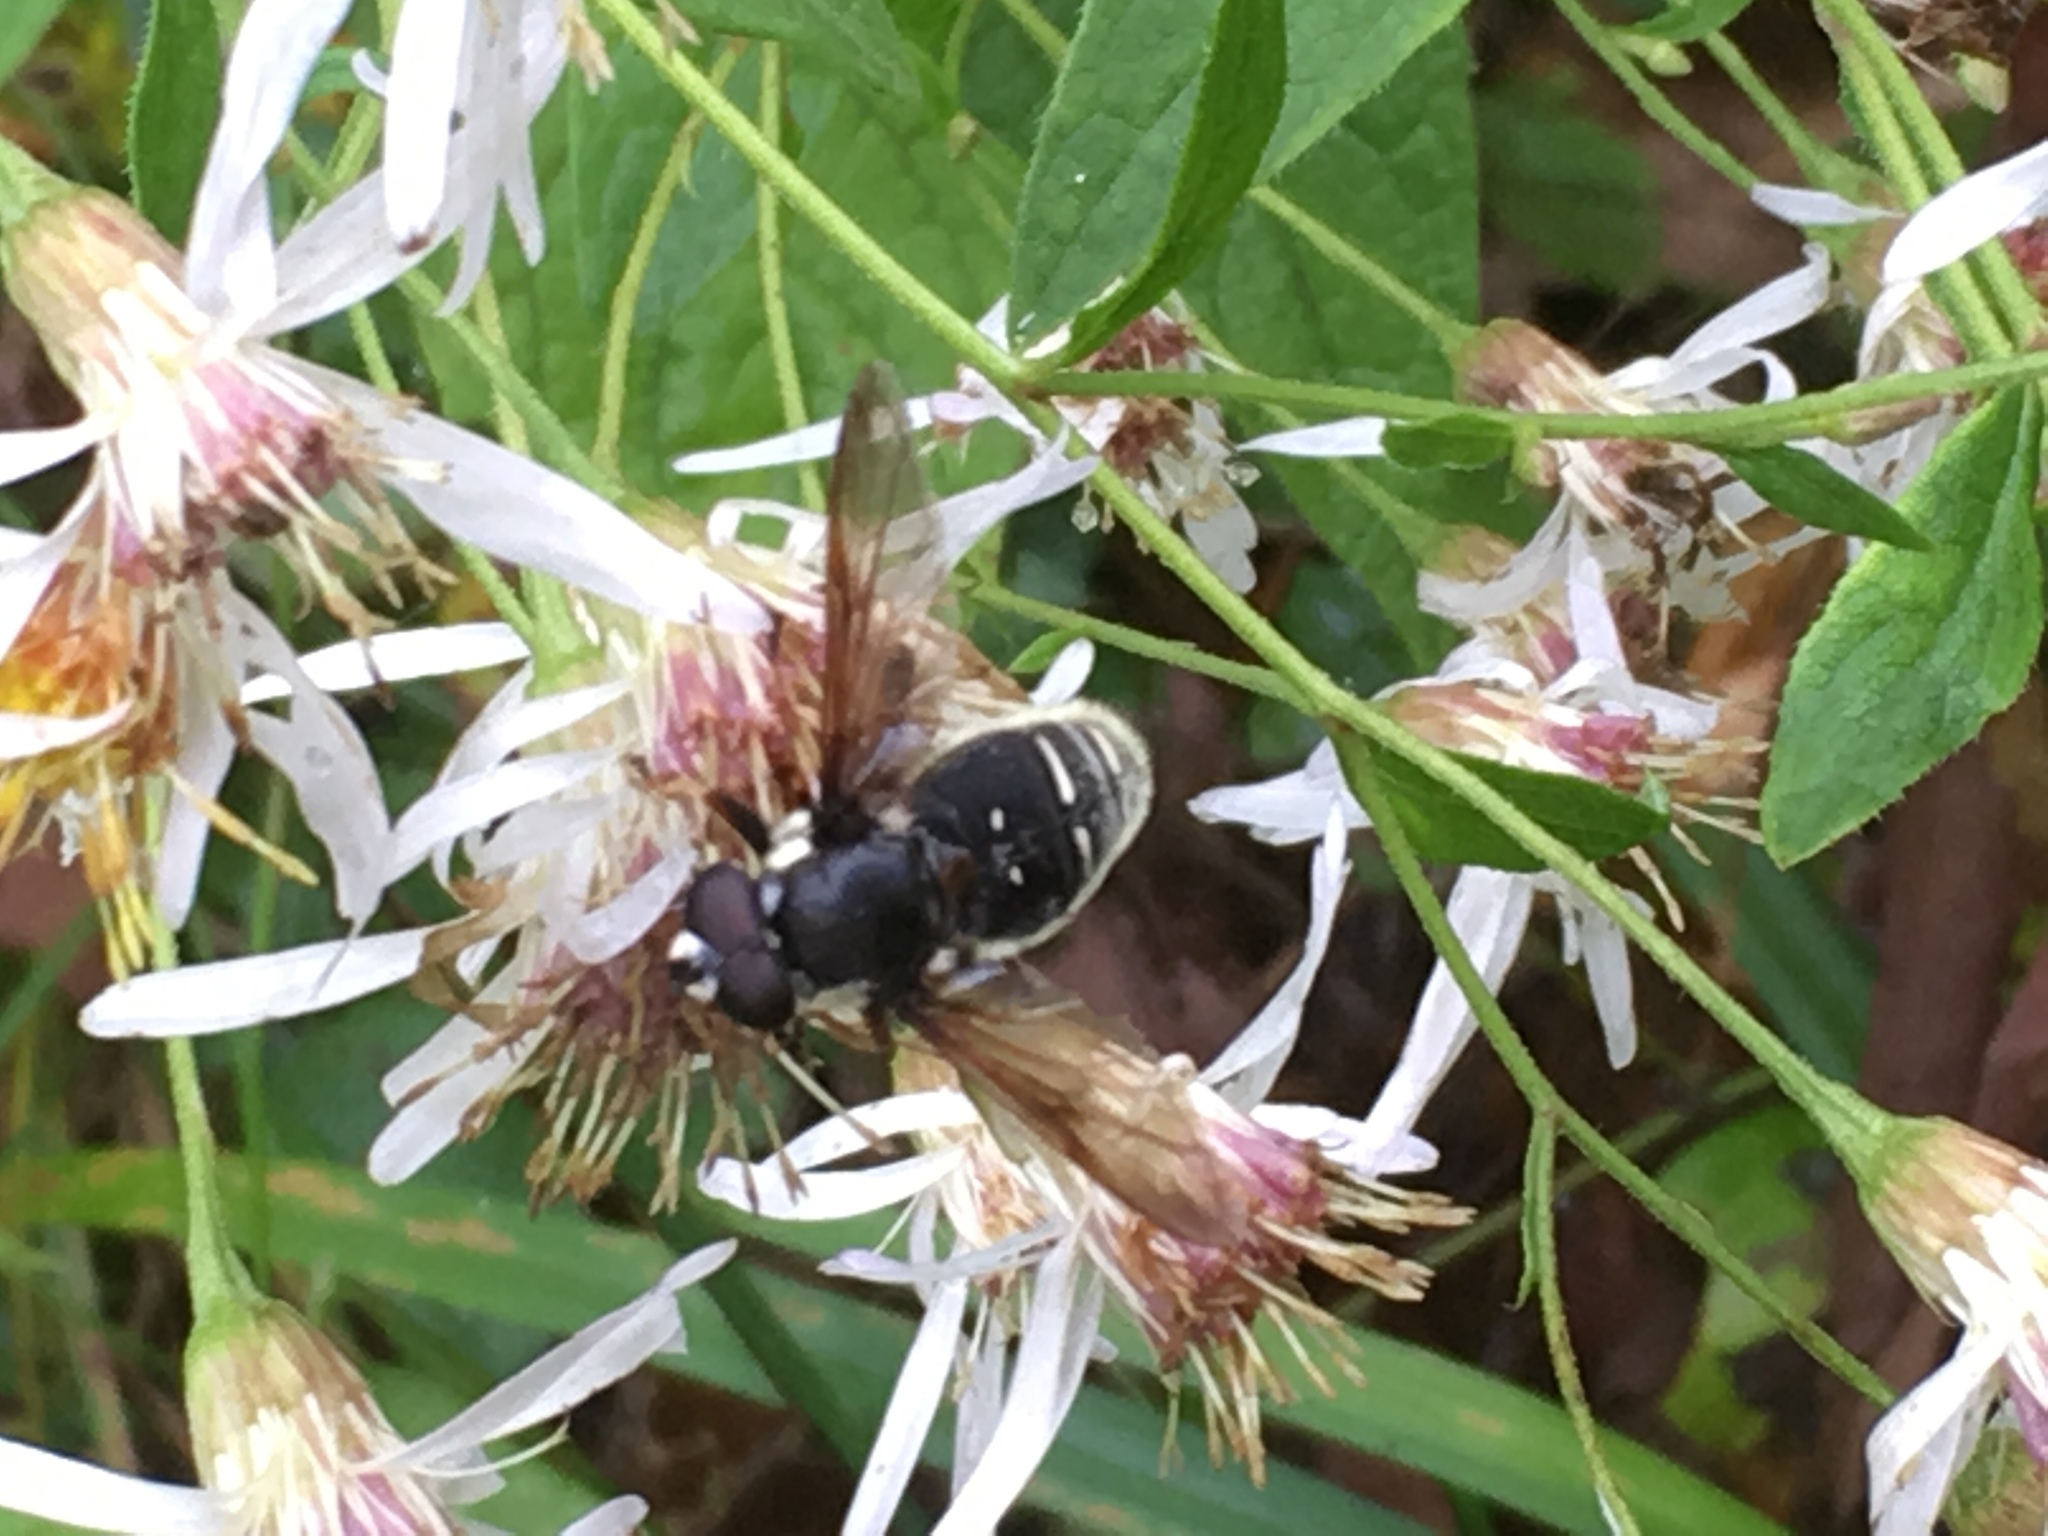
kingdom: Animalia
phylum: Arthropoda
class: Insecta
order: Diptera
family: Syrphidae
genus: Sericomyia
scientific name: Sericomyia militaris
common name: Narrow-banded pond fly
